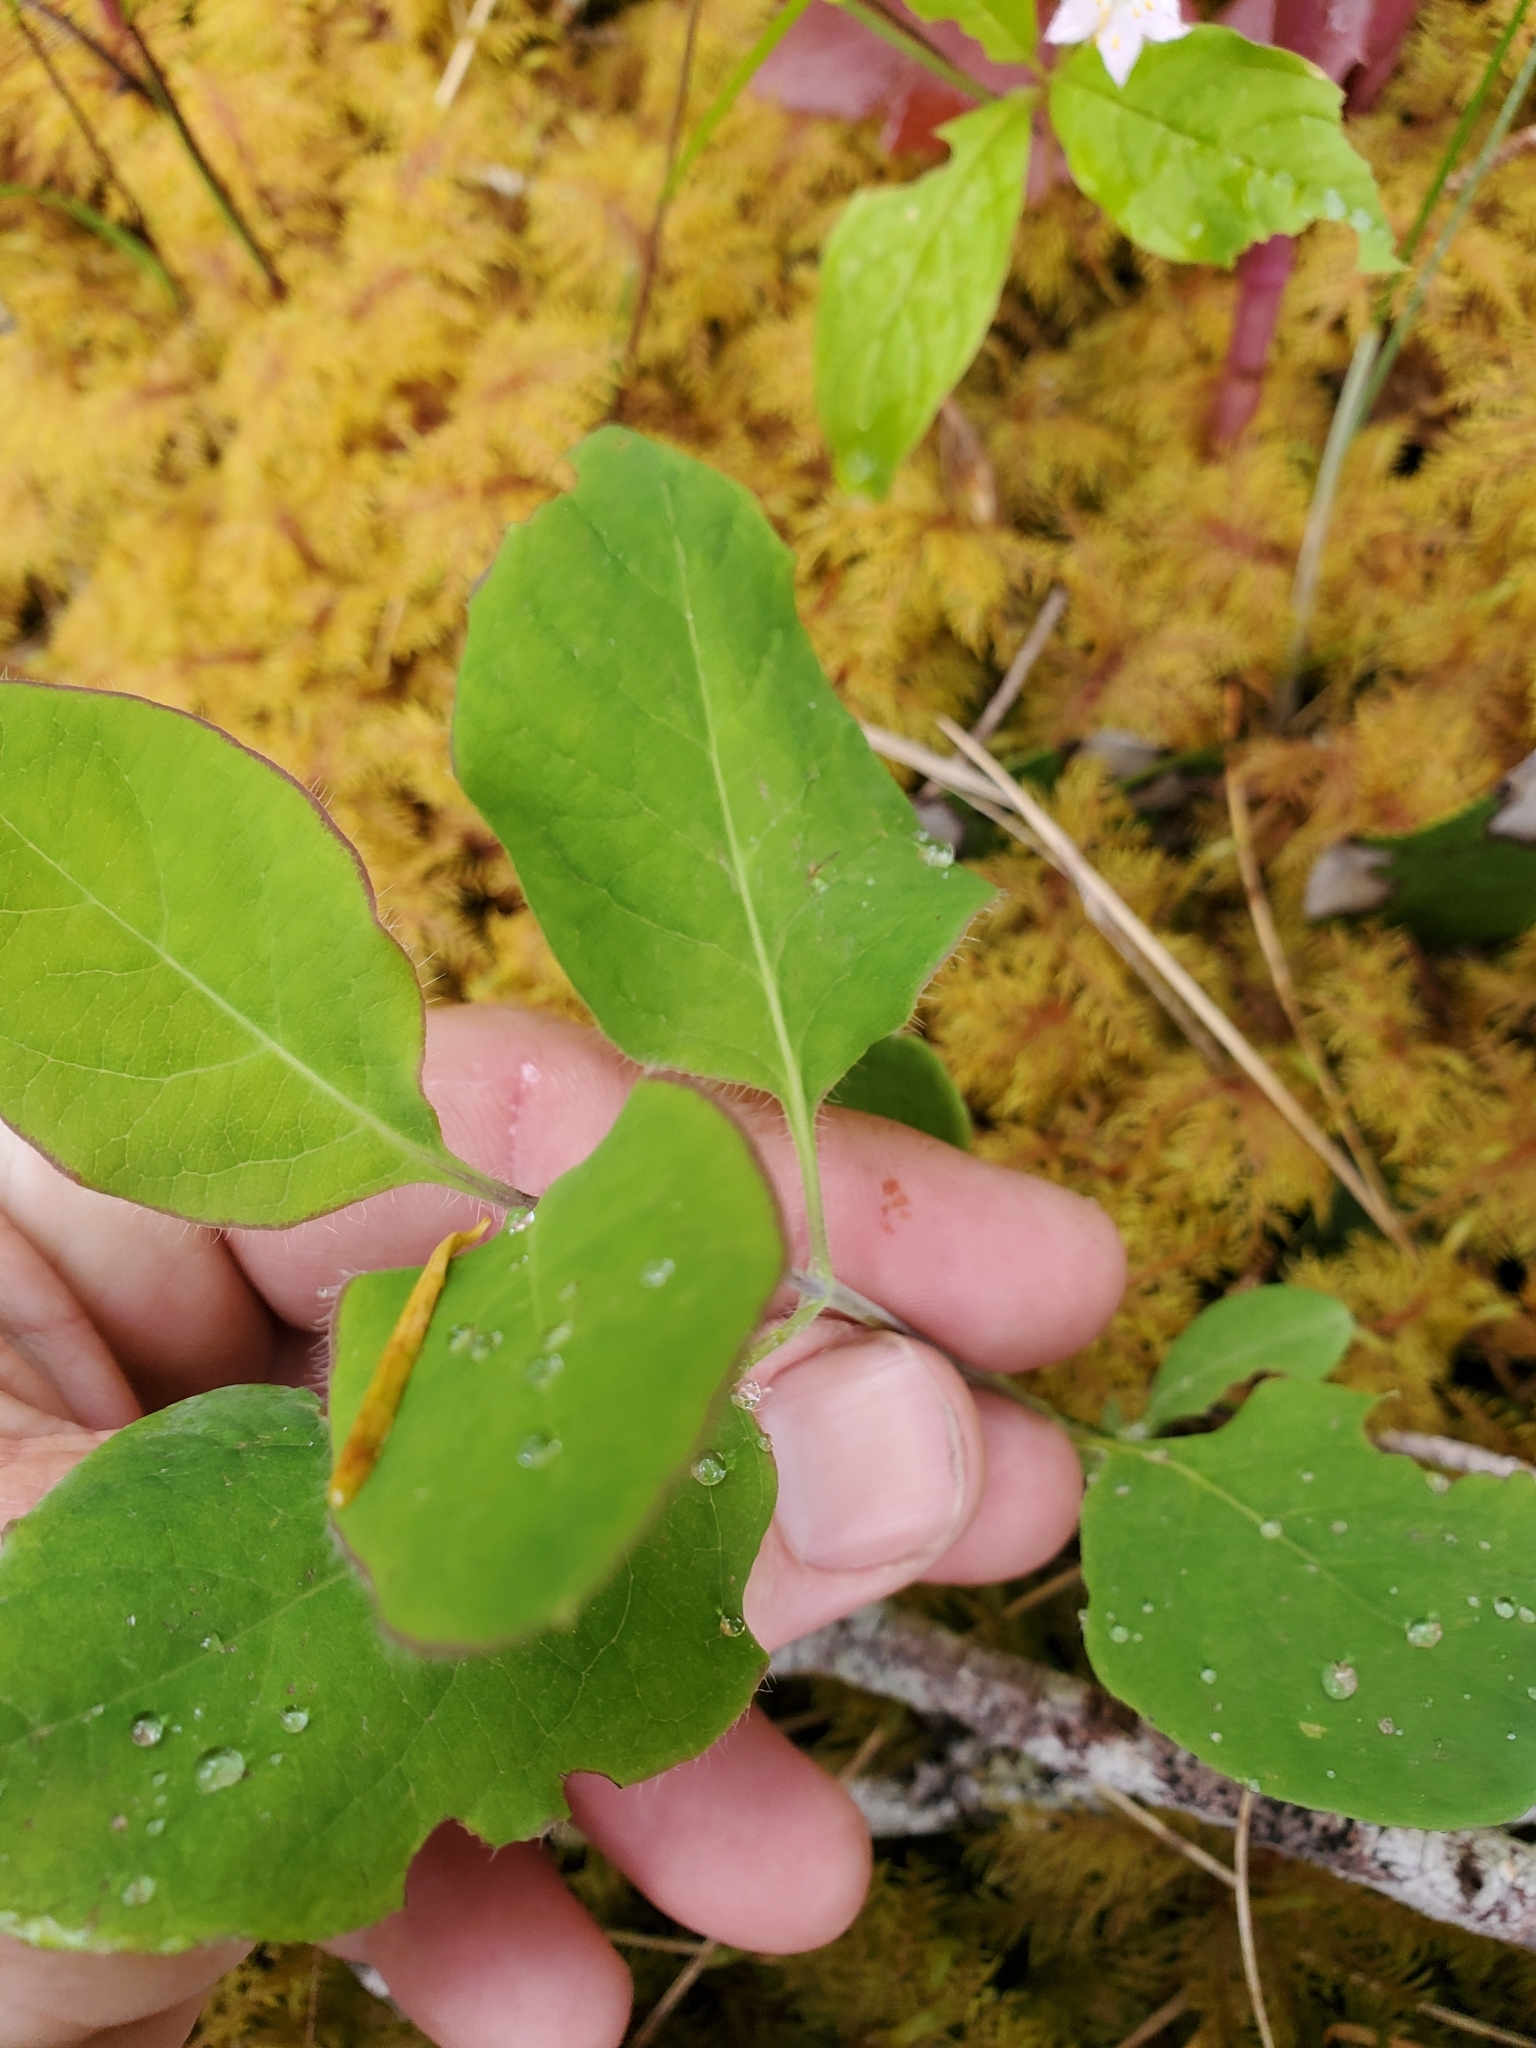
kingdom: Plantae
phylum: Tracheophyta
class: Magnoliopsida
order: Dipsacales
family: Caprifoliaceae
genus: Lonicera
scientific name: Lonicera ciliosa
